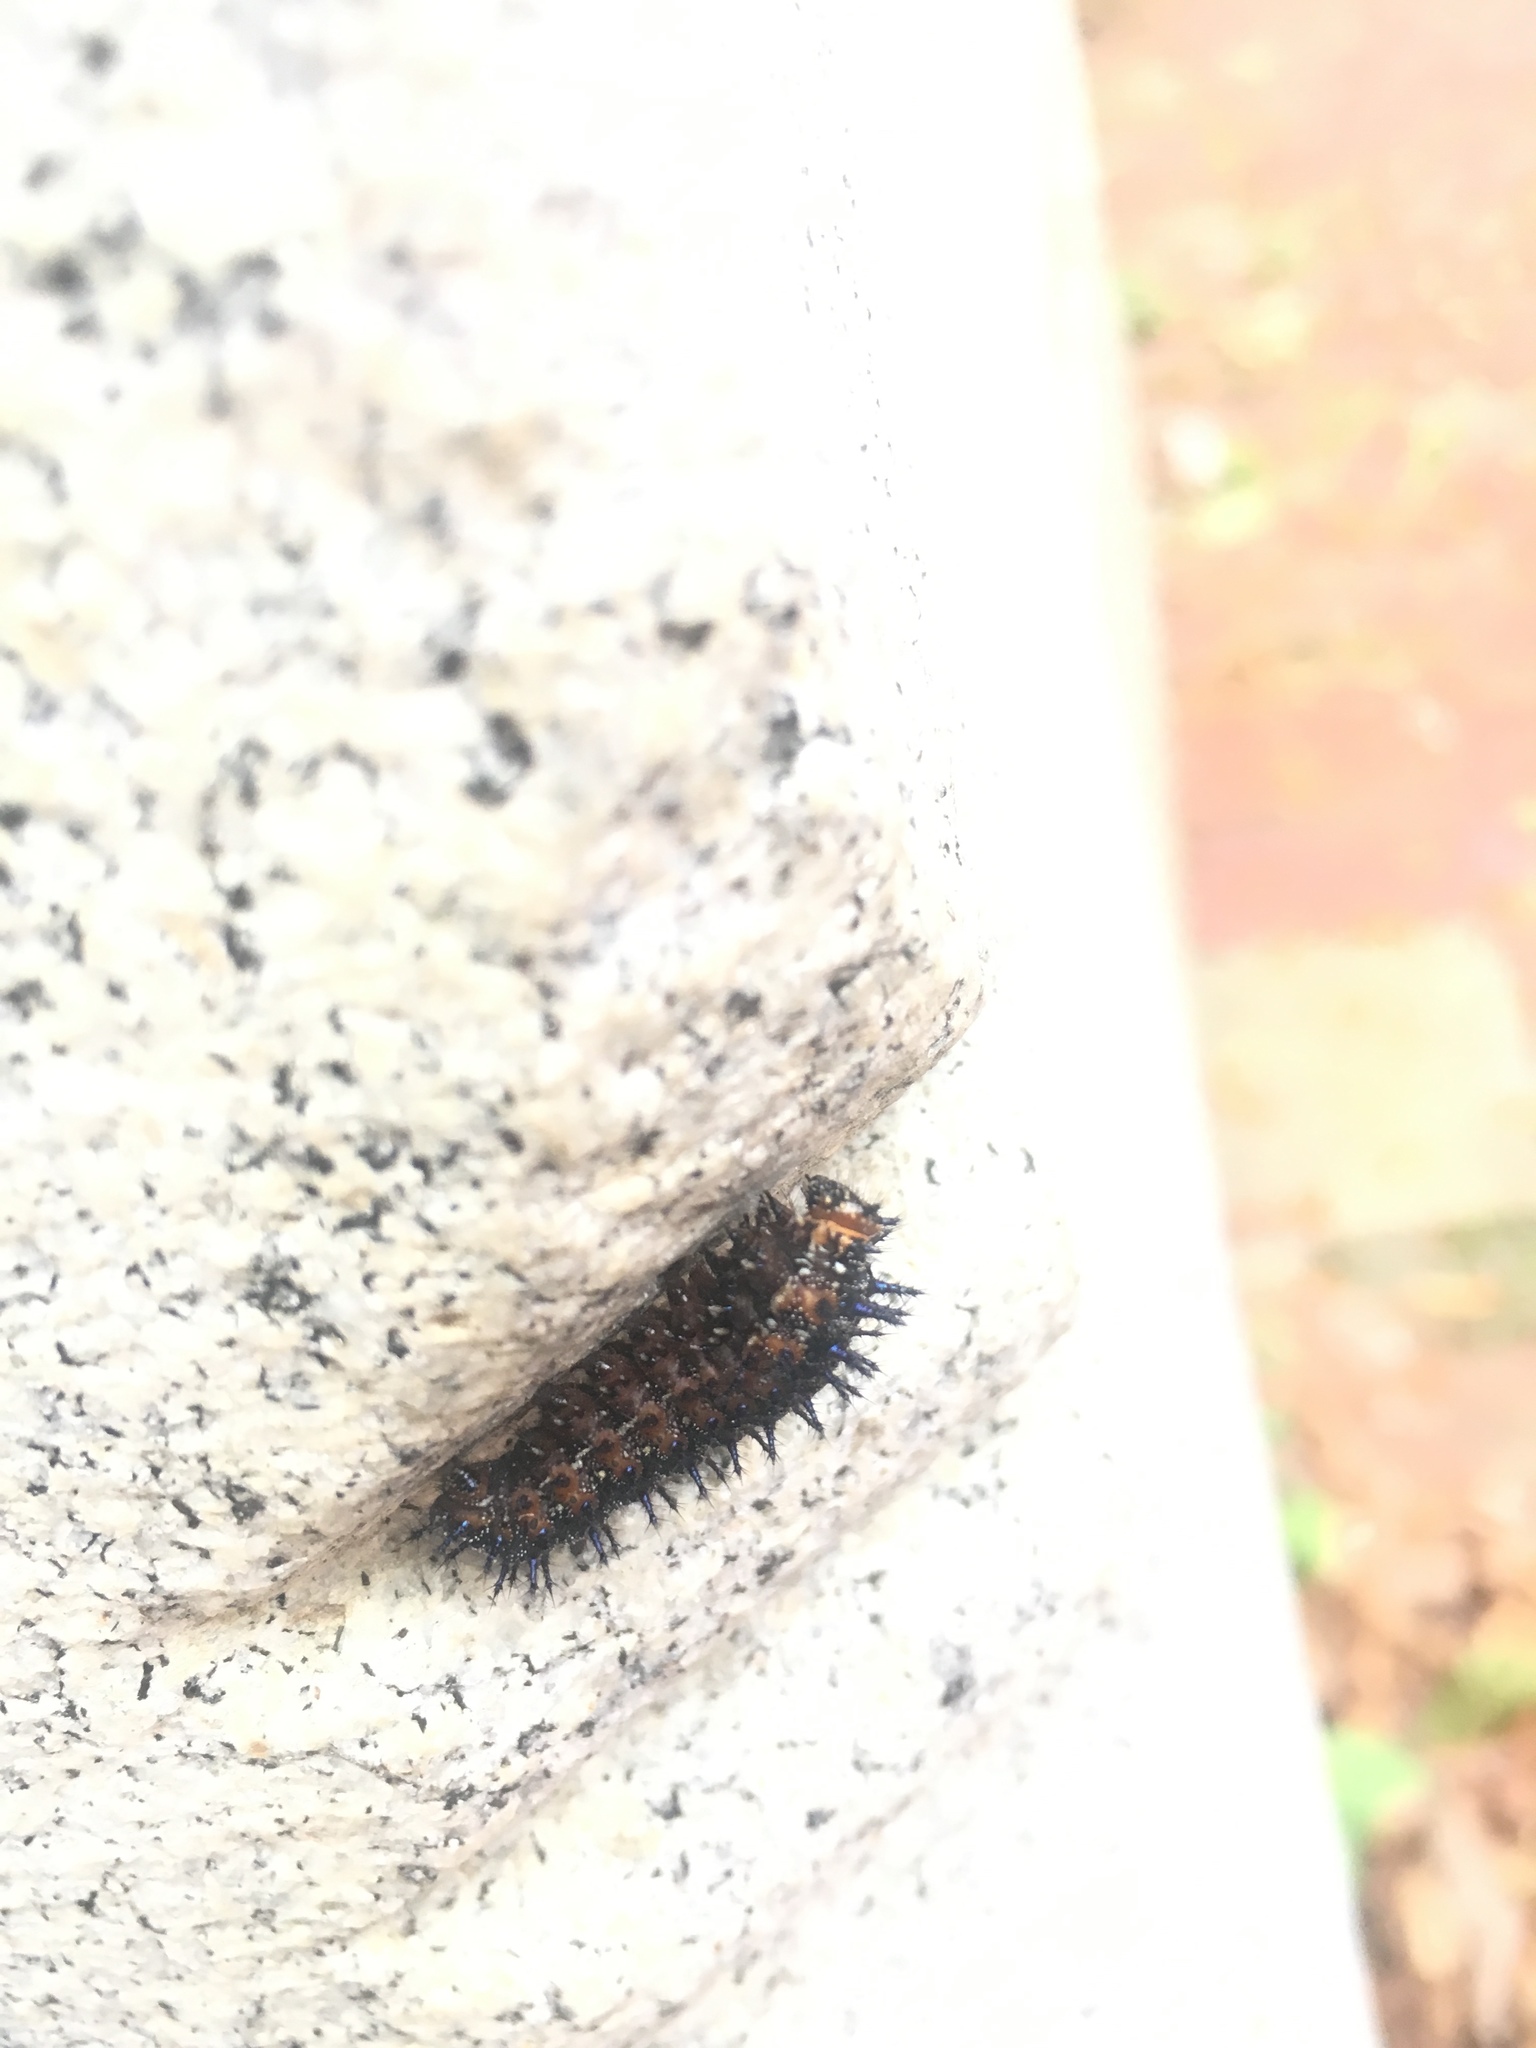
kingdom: Animalia
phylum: Arthropoda
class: Insecta
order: Lepidoptera
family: Nymphalidae
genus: Junonia
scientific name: Junonia coenia
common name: Common buckeye
